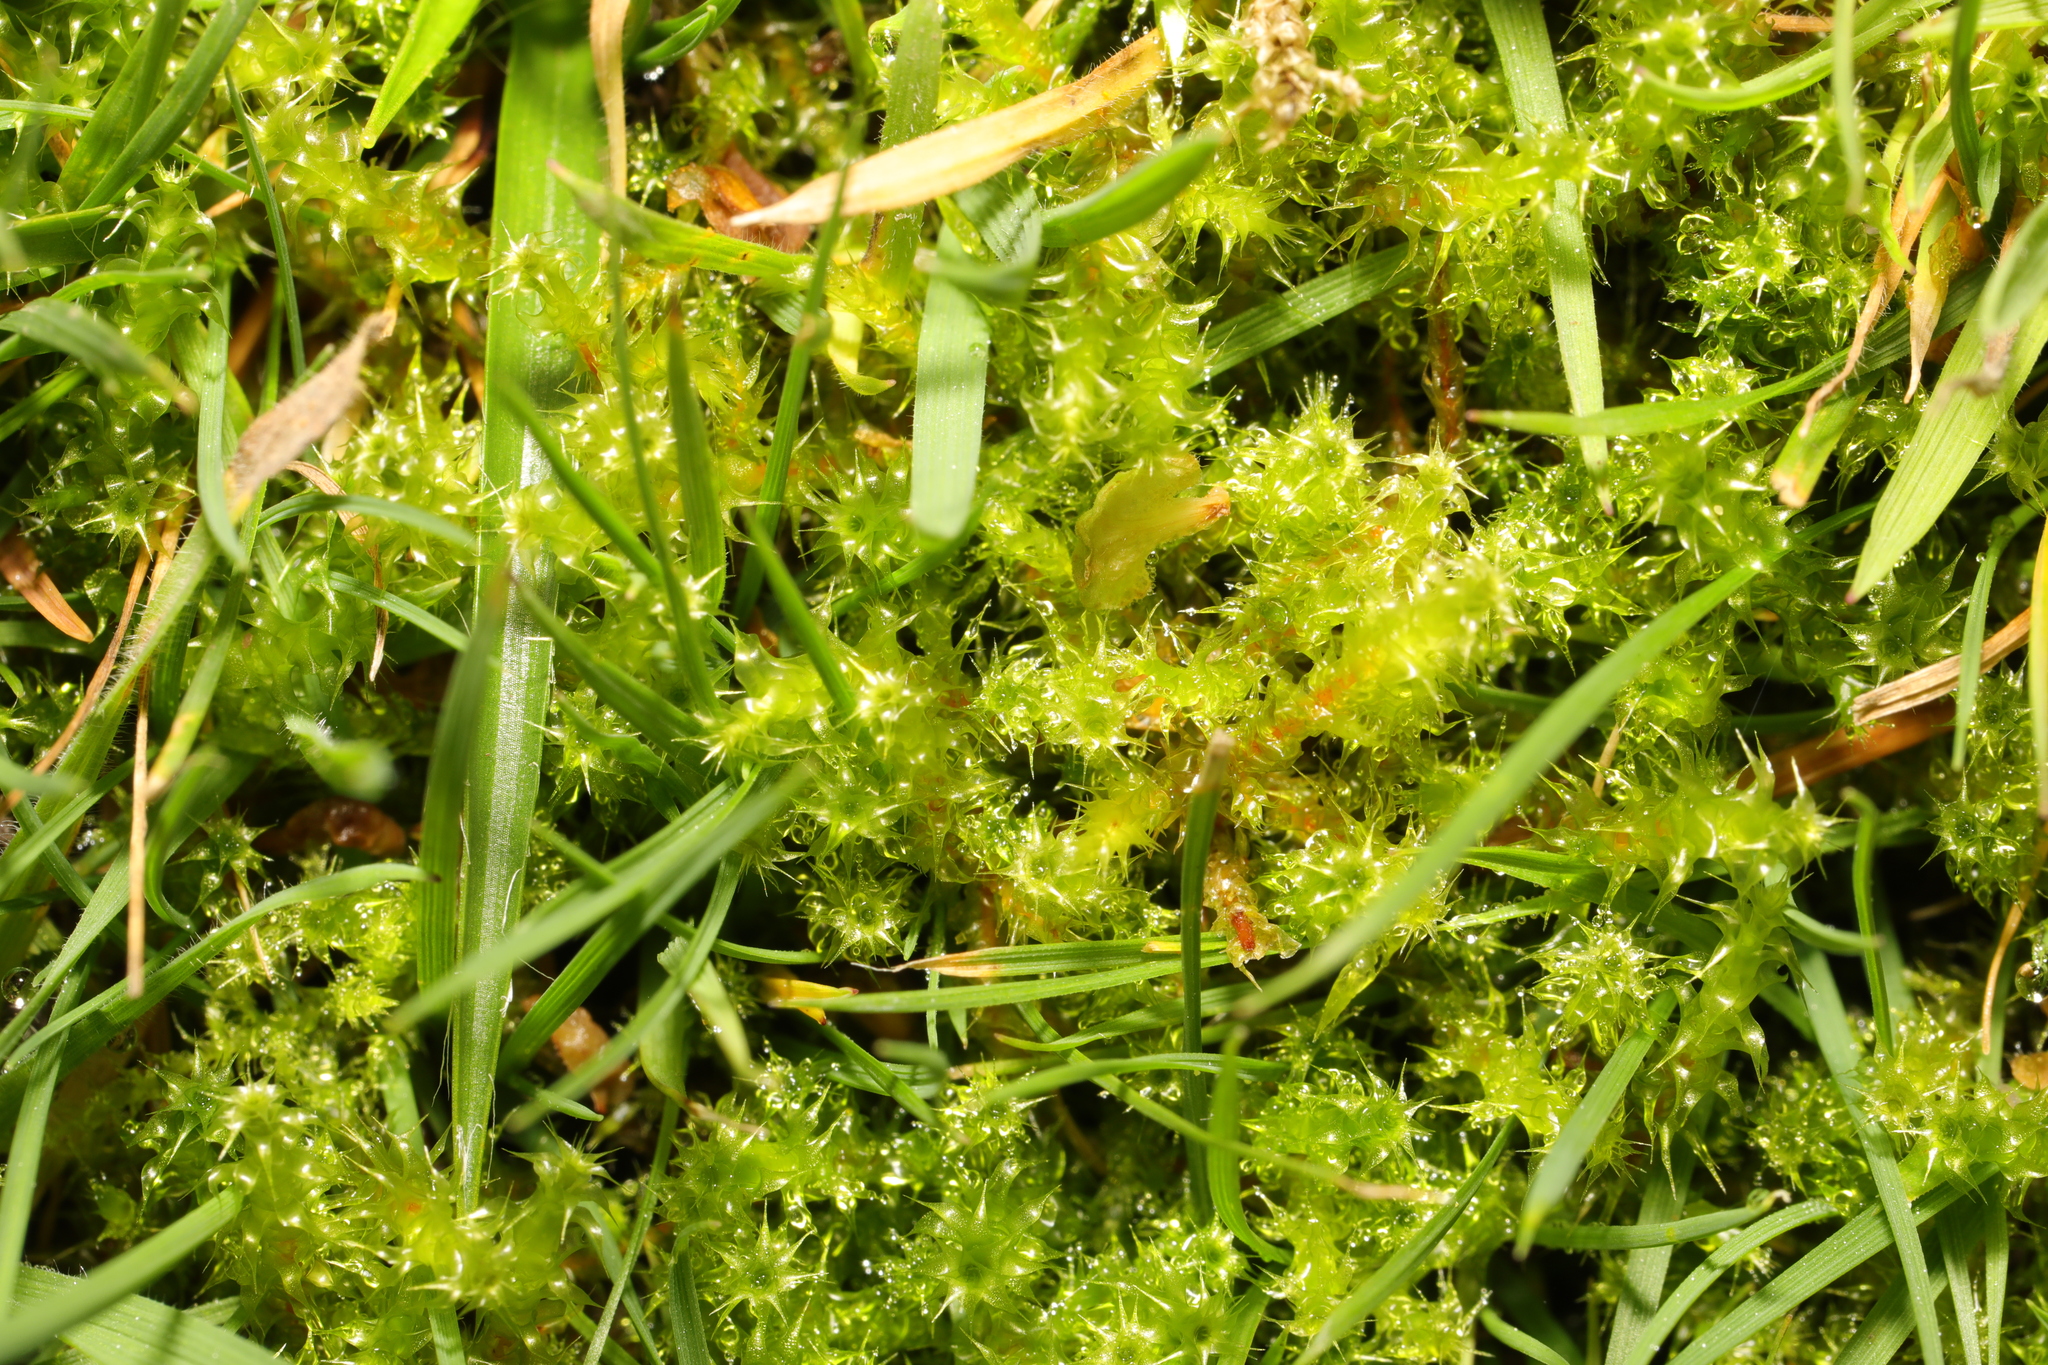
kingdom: Plantae
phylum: Bryophyta
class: Bryopsida
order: Hypnales
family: Hylocomiaceae
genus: Rhytidiadelphus
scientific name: Rhytidiadelphus squarrosus
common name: Springy turf-moss
